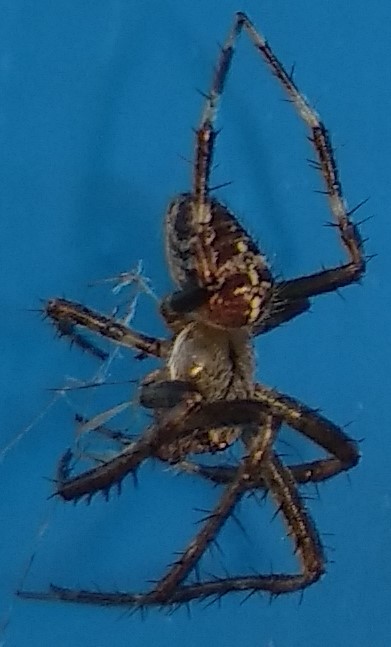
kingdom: Animalia
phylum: Arthropoda
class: Arachnida
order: Araneae
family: Araneidae
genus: Araneus
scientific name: Araneus diadematus
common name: Cross orbweaver
